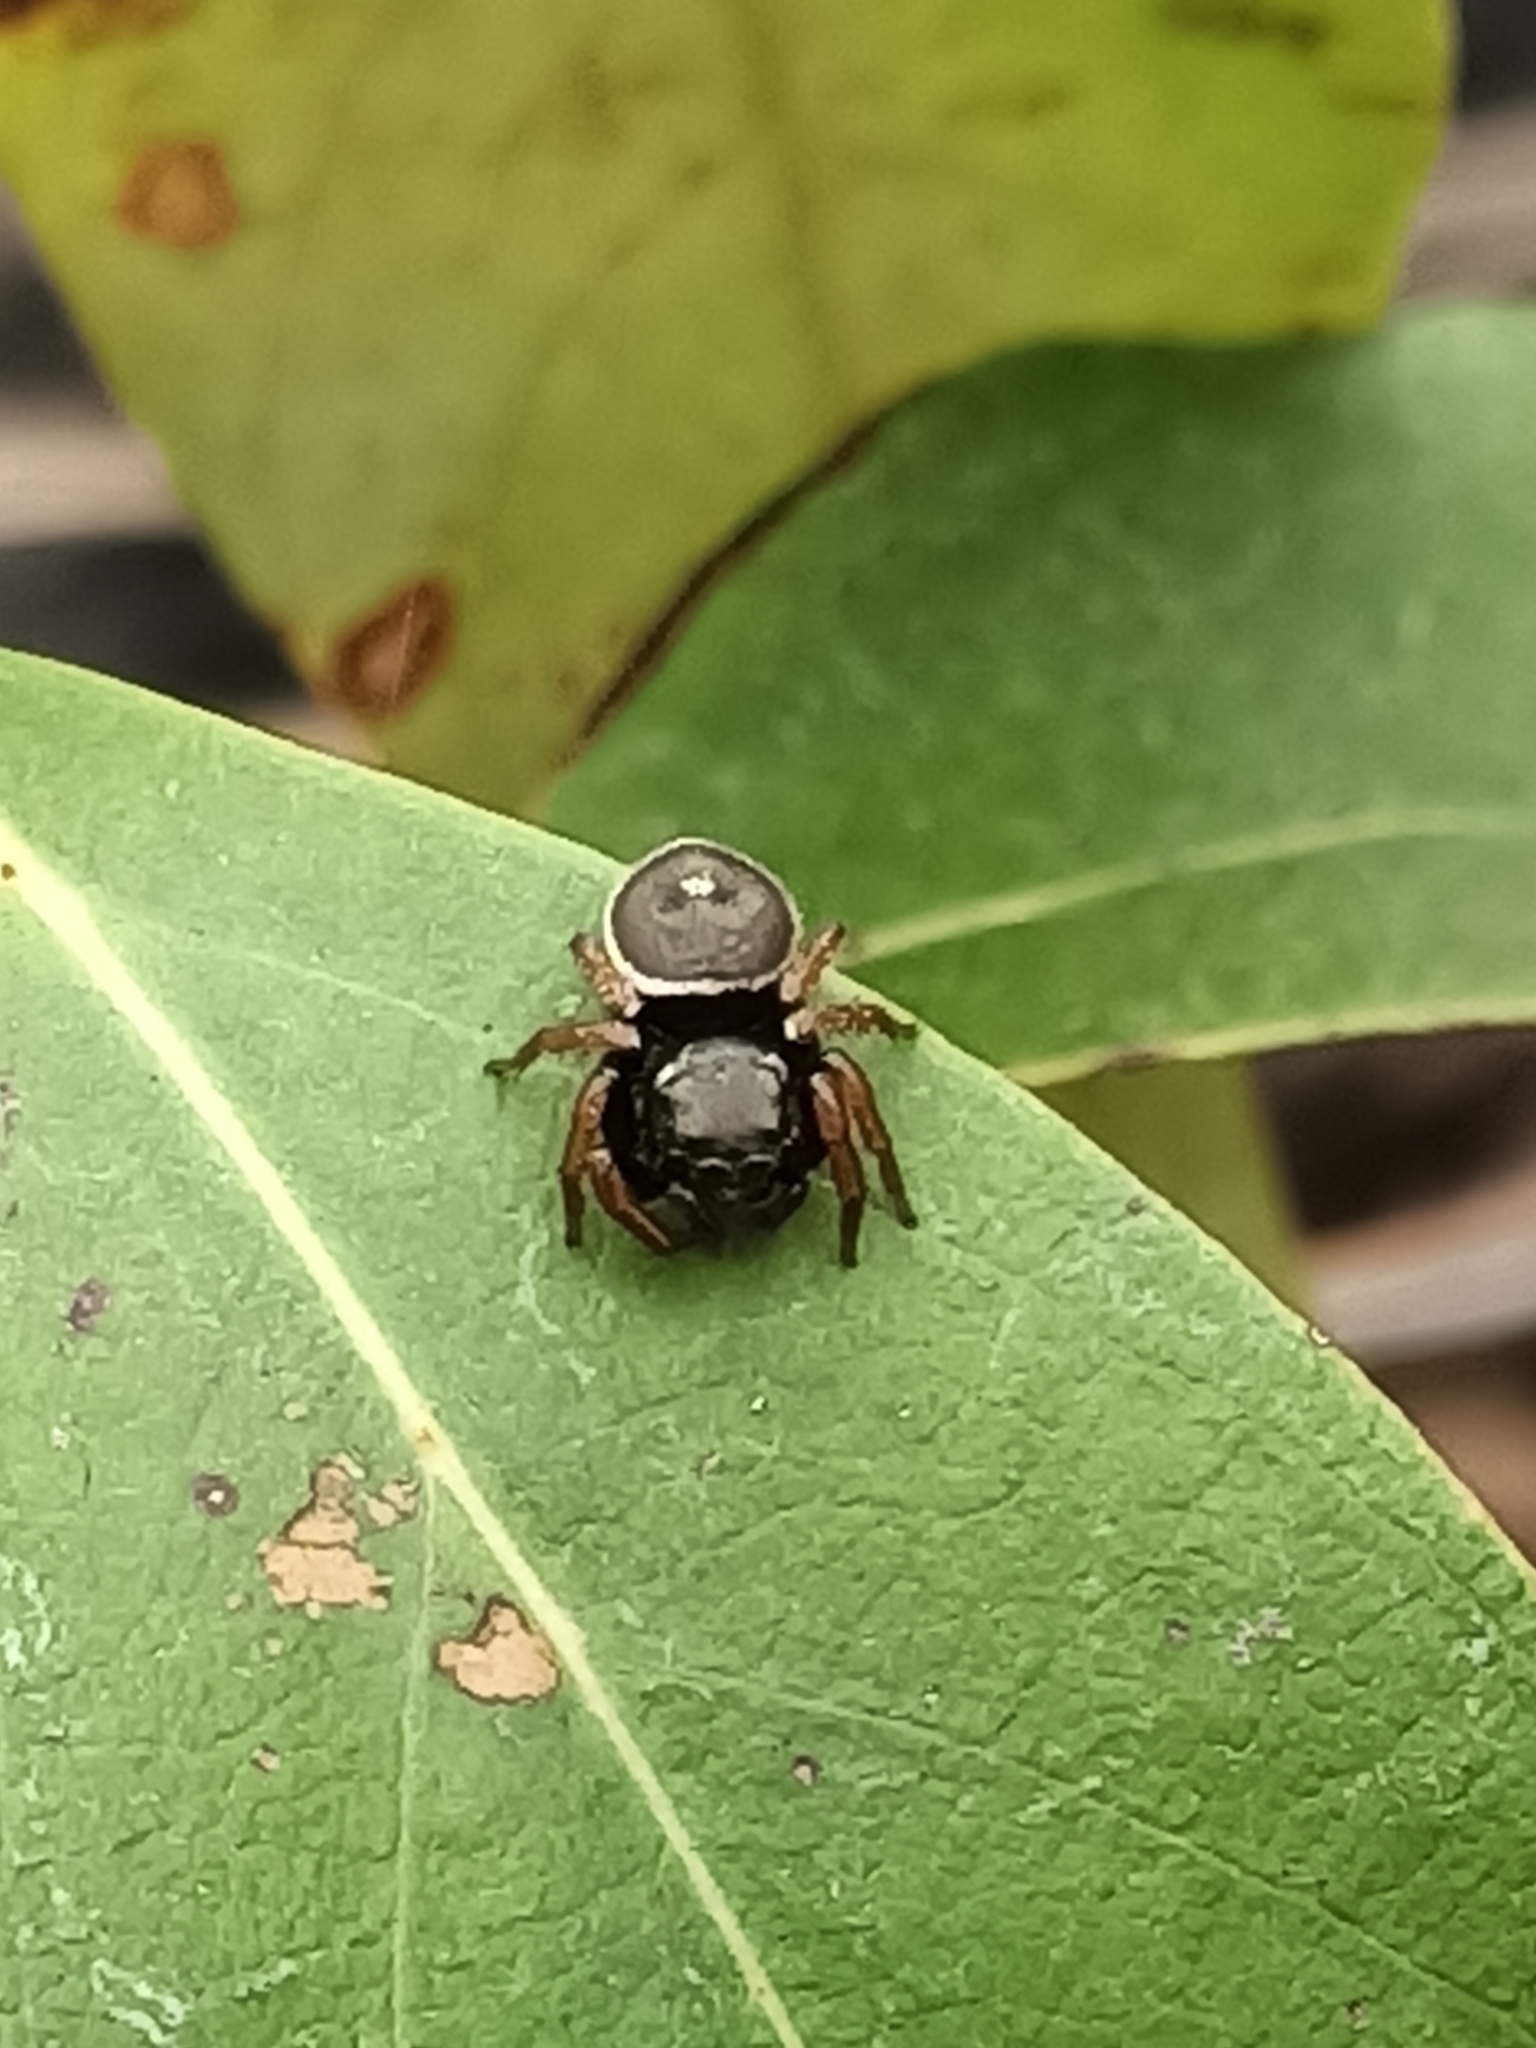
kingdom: Animalia
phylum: Arthropoda
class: Arachnida
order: Araneae
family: Salticidae
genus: Zenodorus
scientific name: Zenodorus orbiculatus
